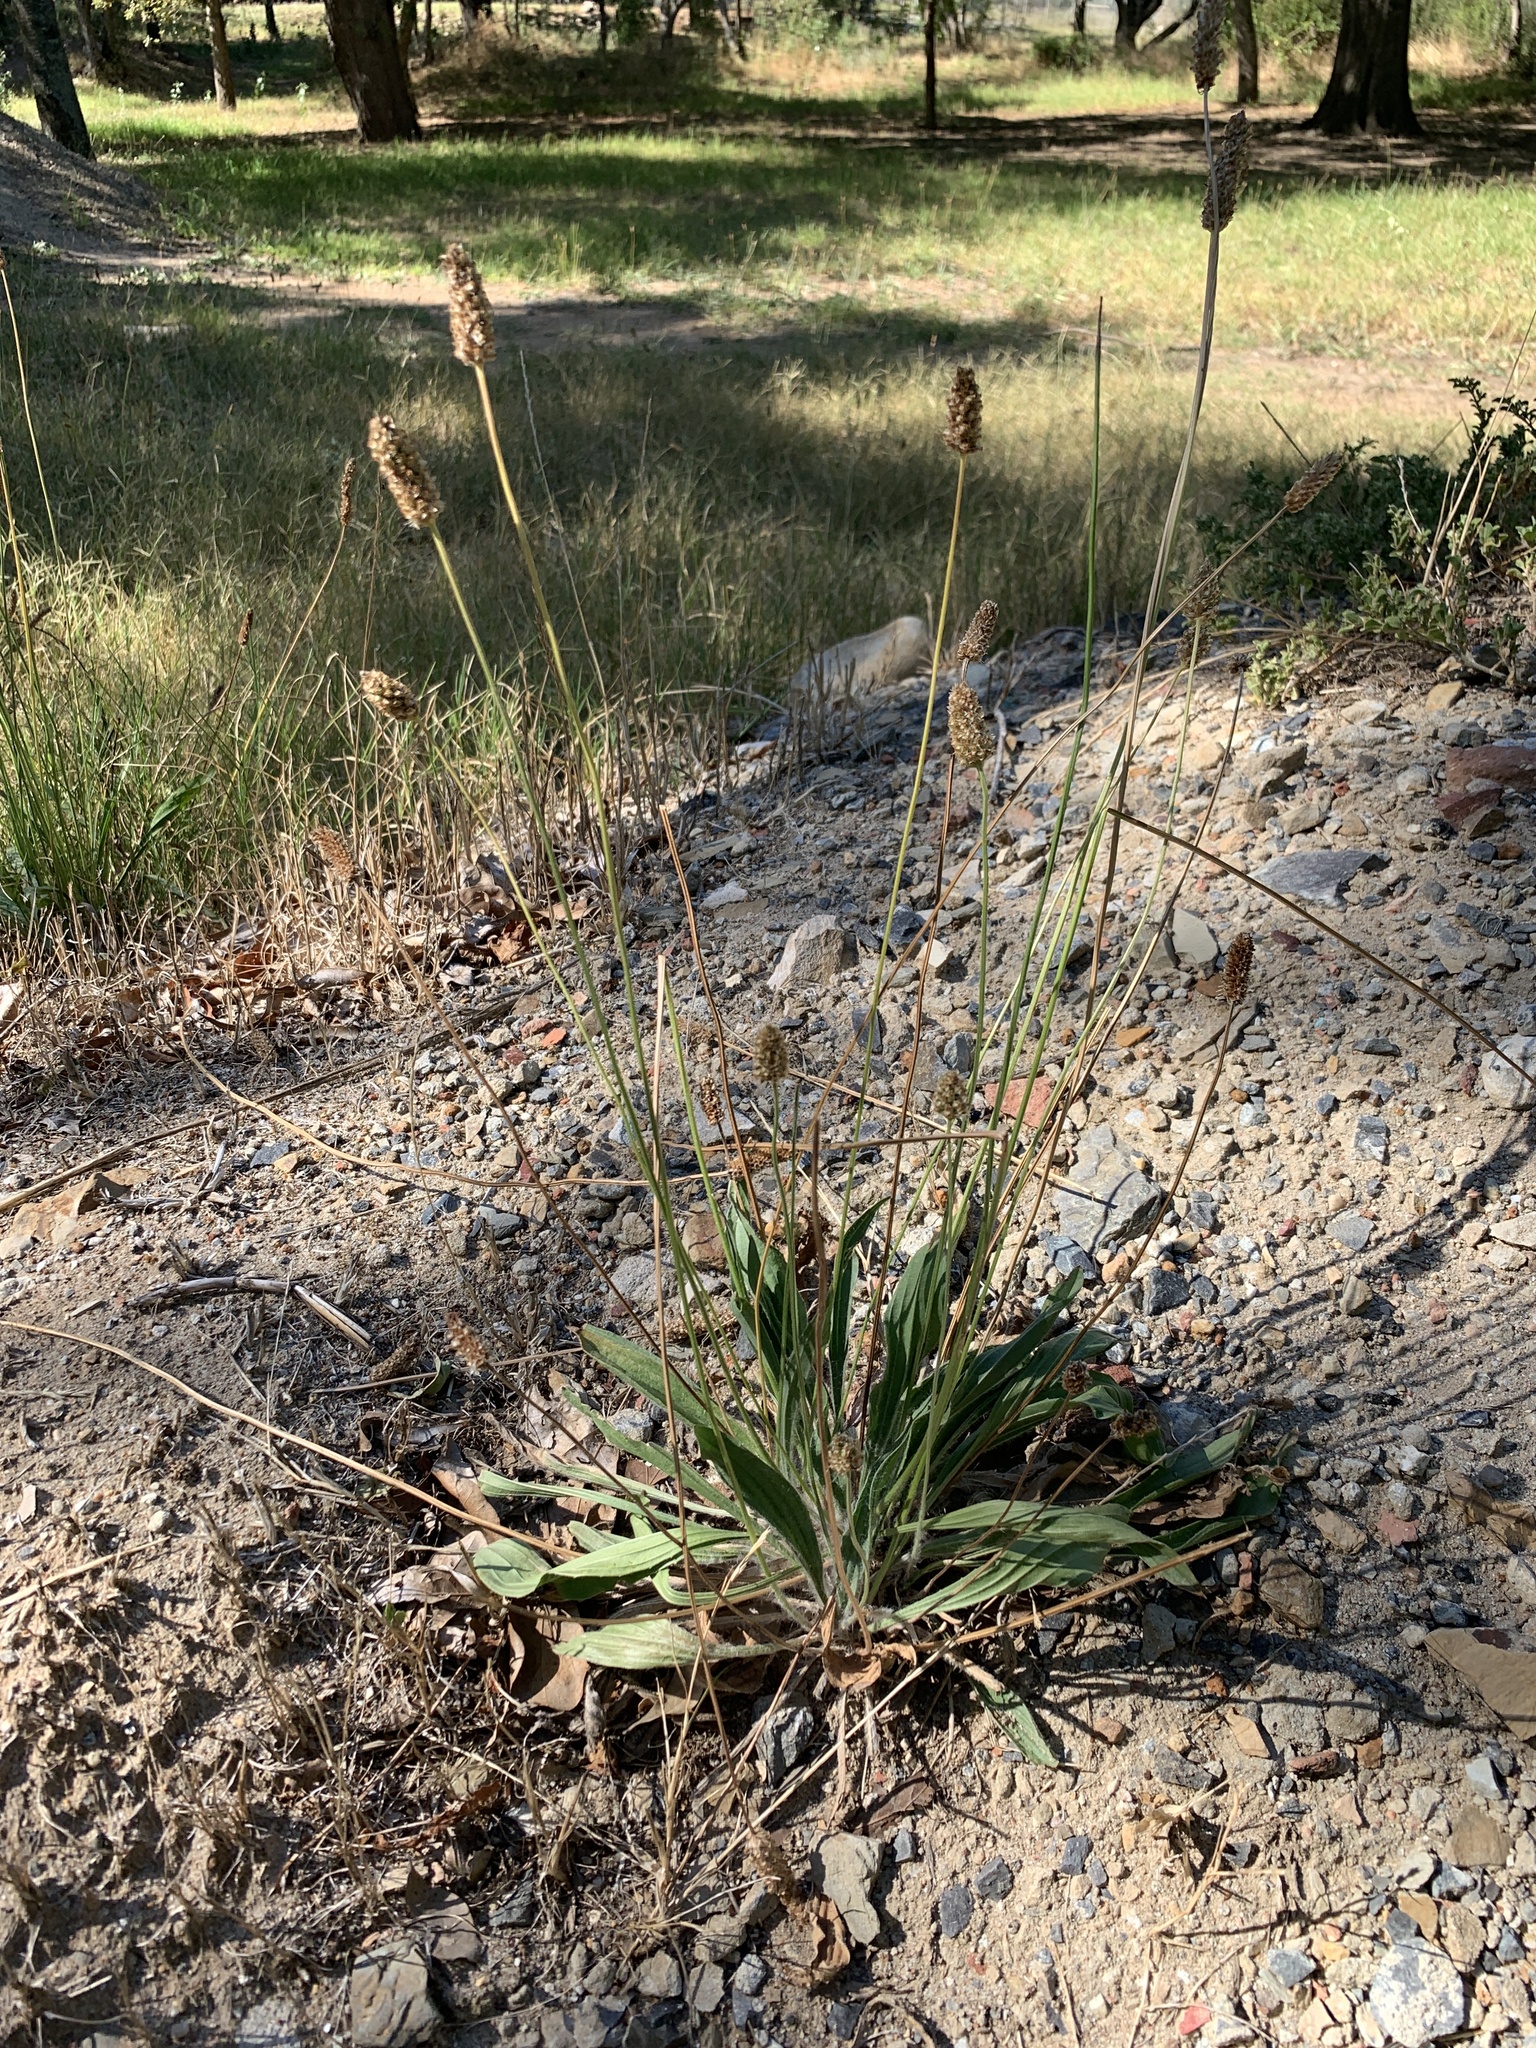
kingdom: Plantae
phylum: Tracheophyta
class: Magnoliopsida
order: Lamiales
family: Plantaginaceae
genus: Plantago
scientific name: Plantago lanceolata
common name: Ribwort plantain
